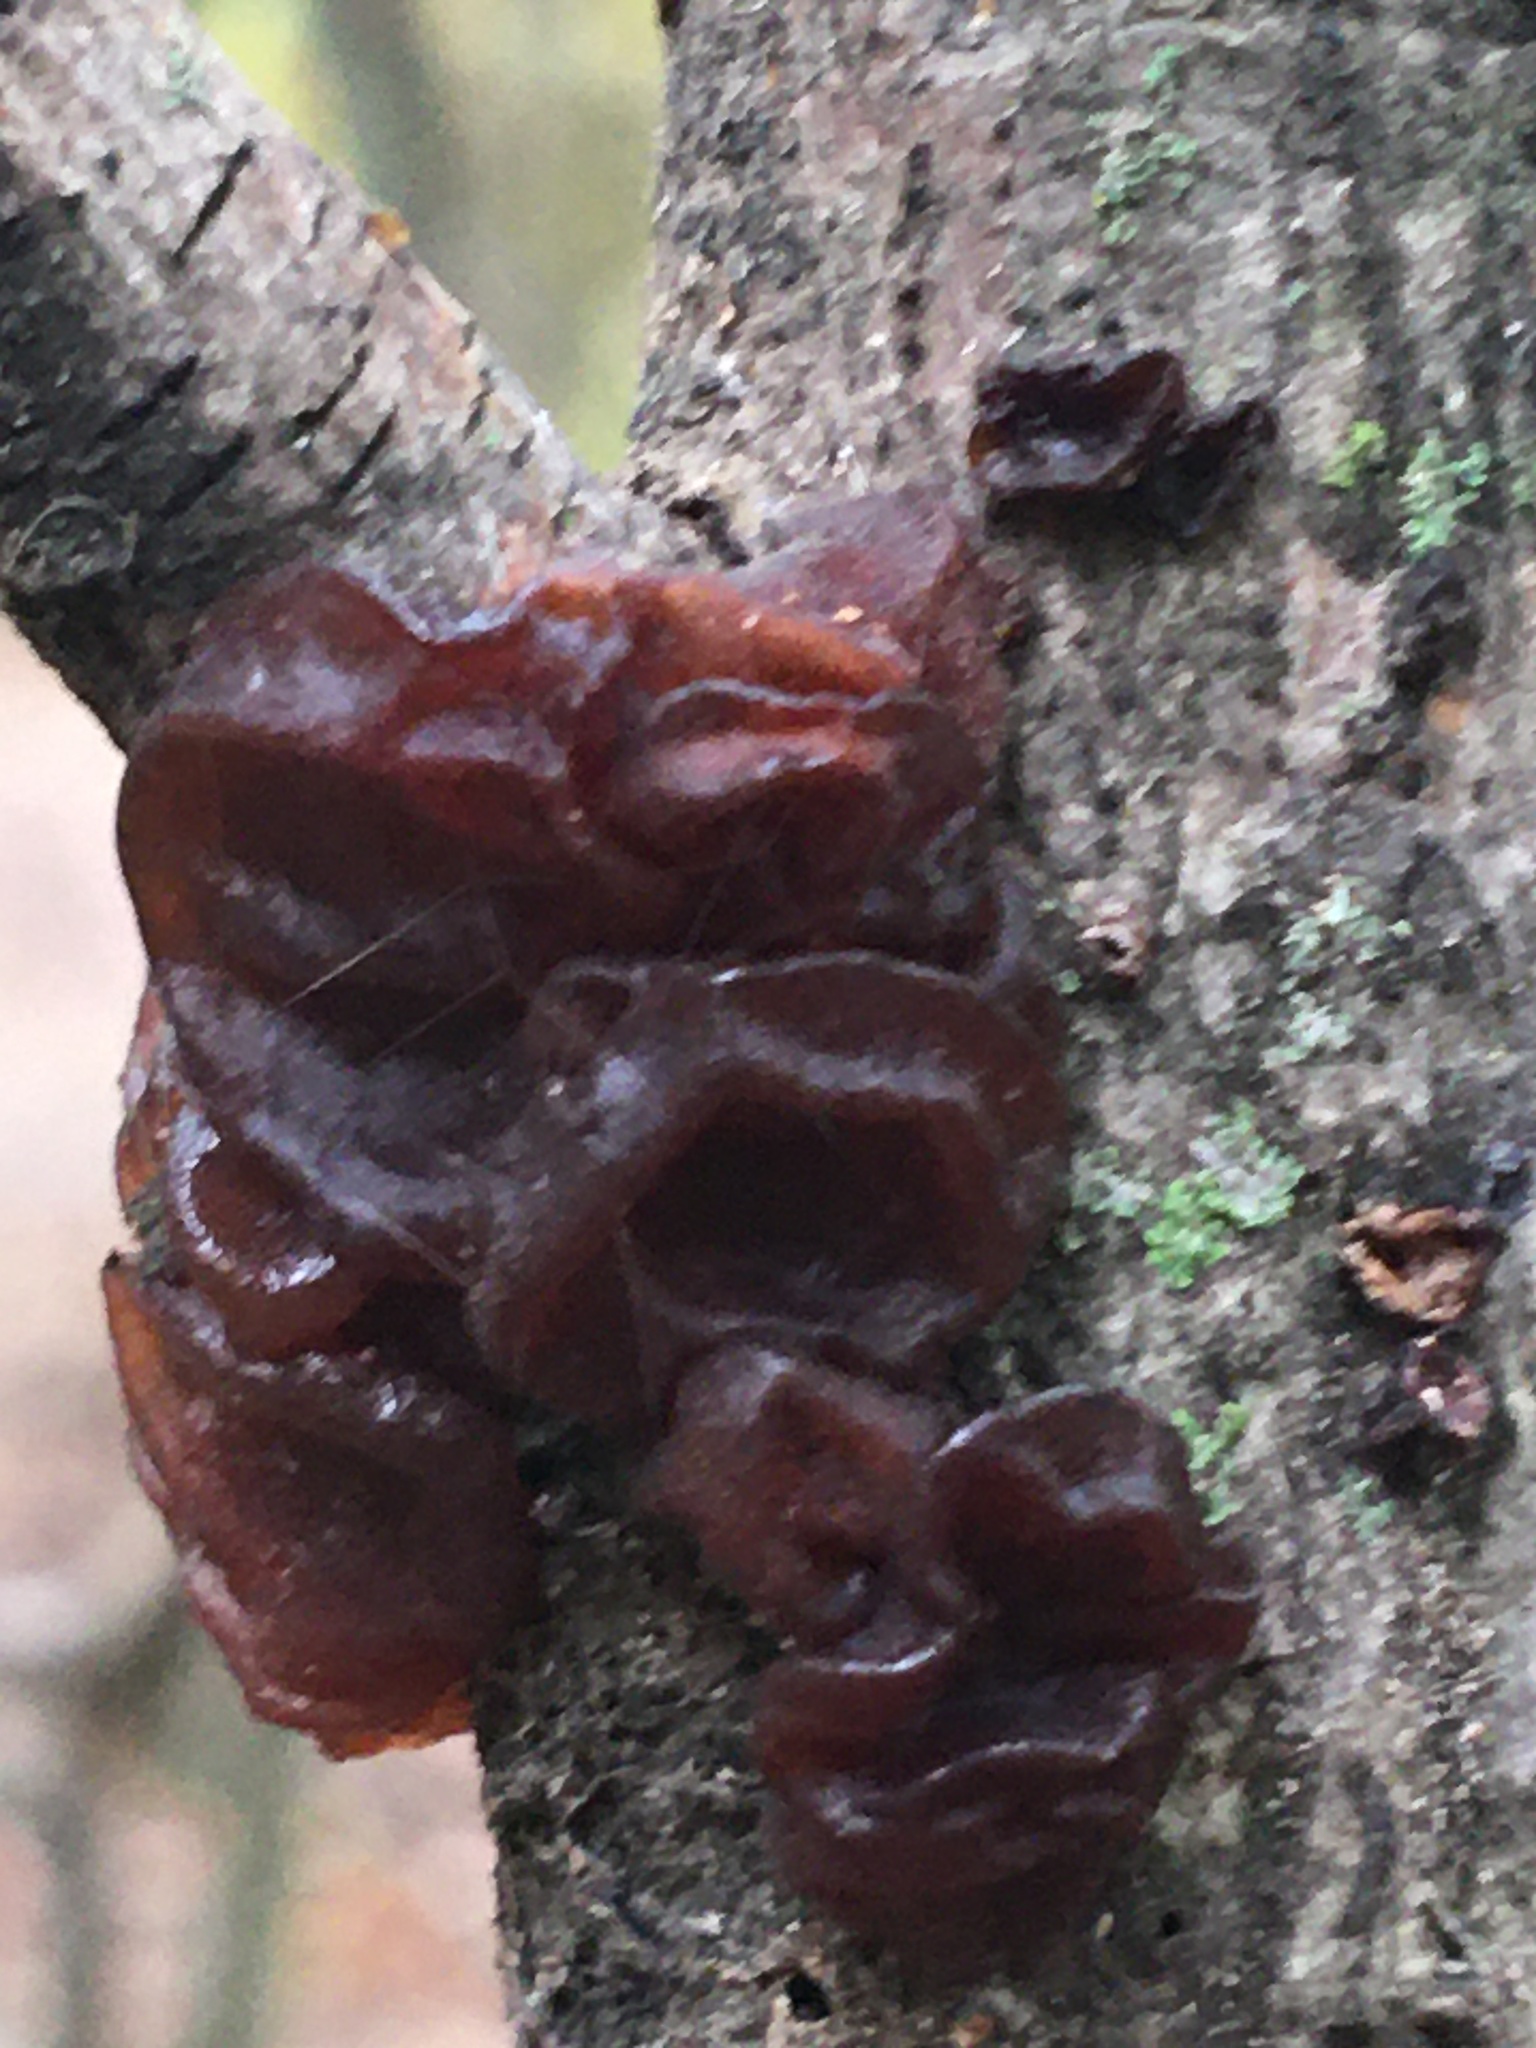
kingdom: Fungi
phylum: Basidiomycota
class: Agaricomycetes
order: Auriculariales
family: Auriculariaceae
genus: Exidia
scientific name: Exidia
